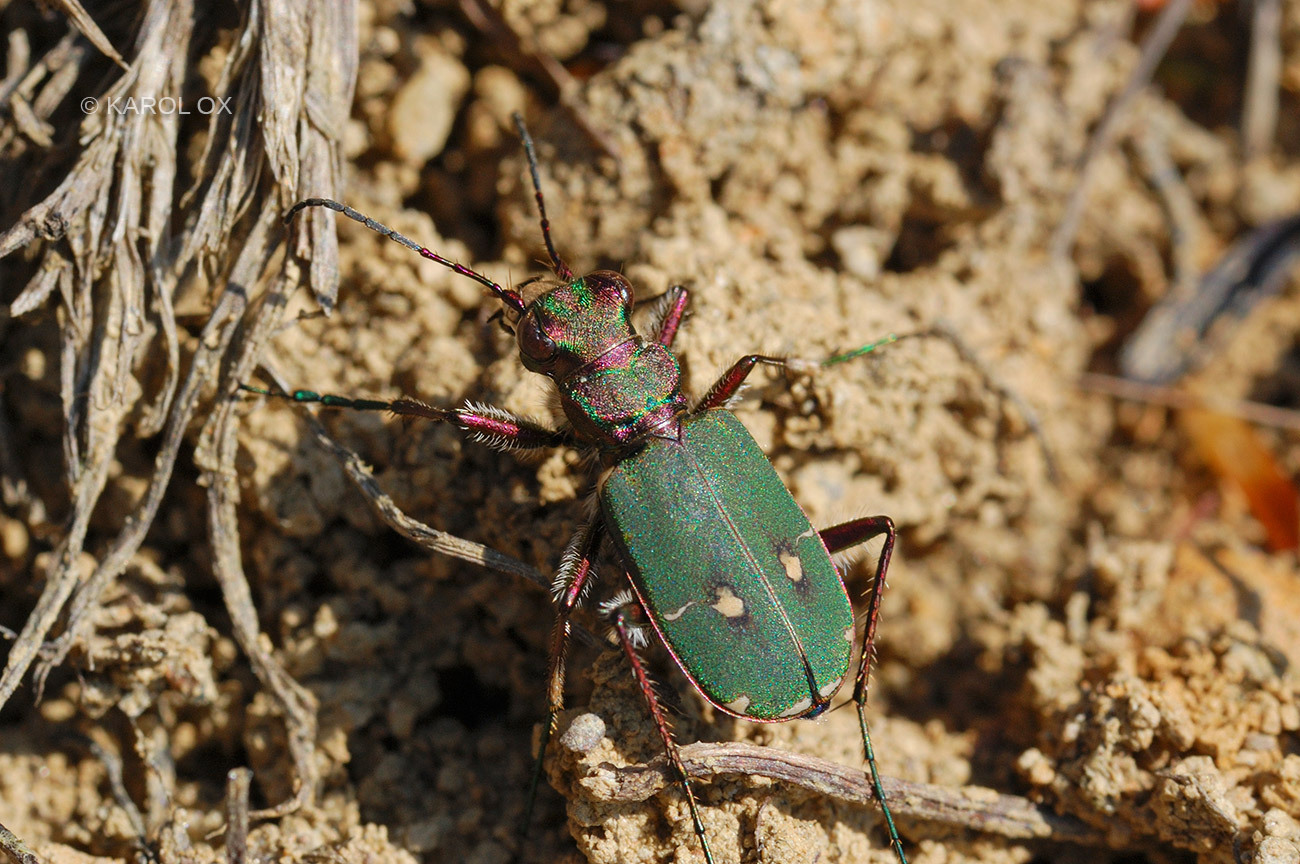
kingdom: Animalia
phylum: Arthropoda
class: Insecta
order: Coleoptera
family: Carabidae
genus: Cicindela
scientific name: Cicindela campestris
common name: Common tiger beetle
